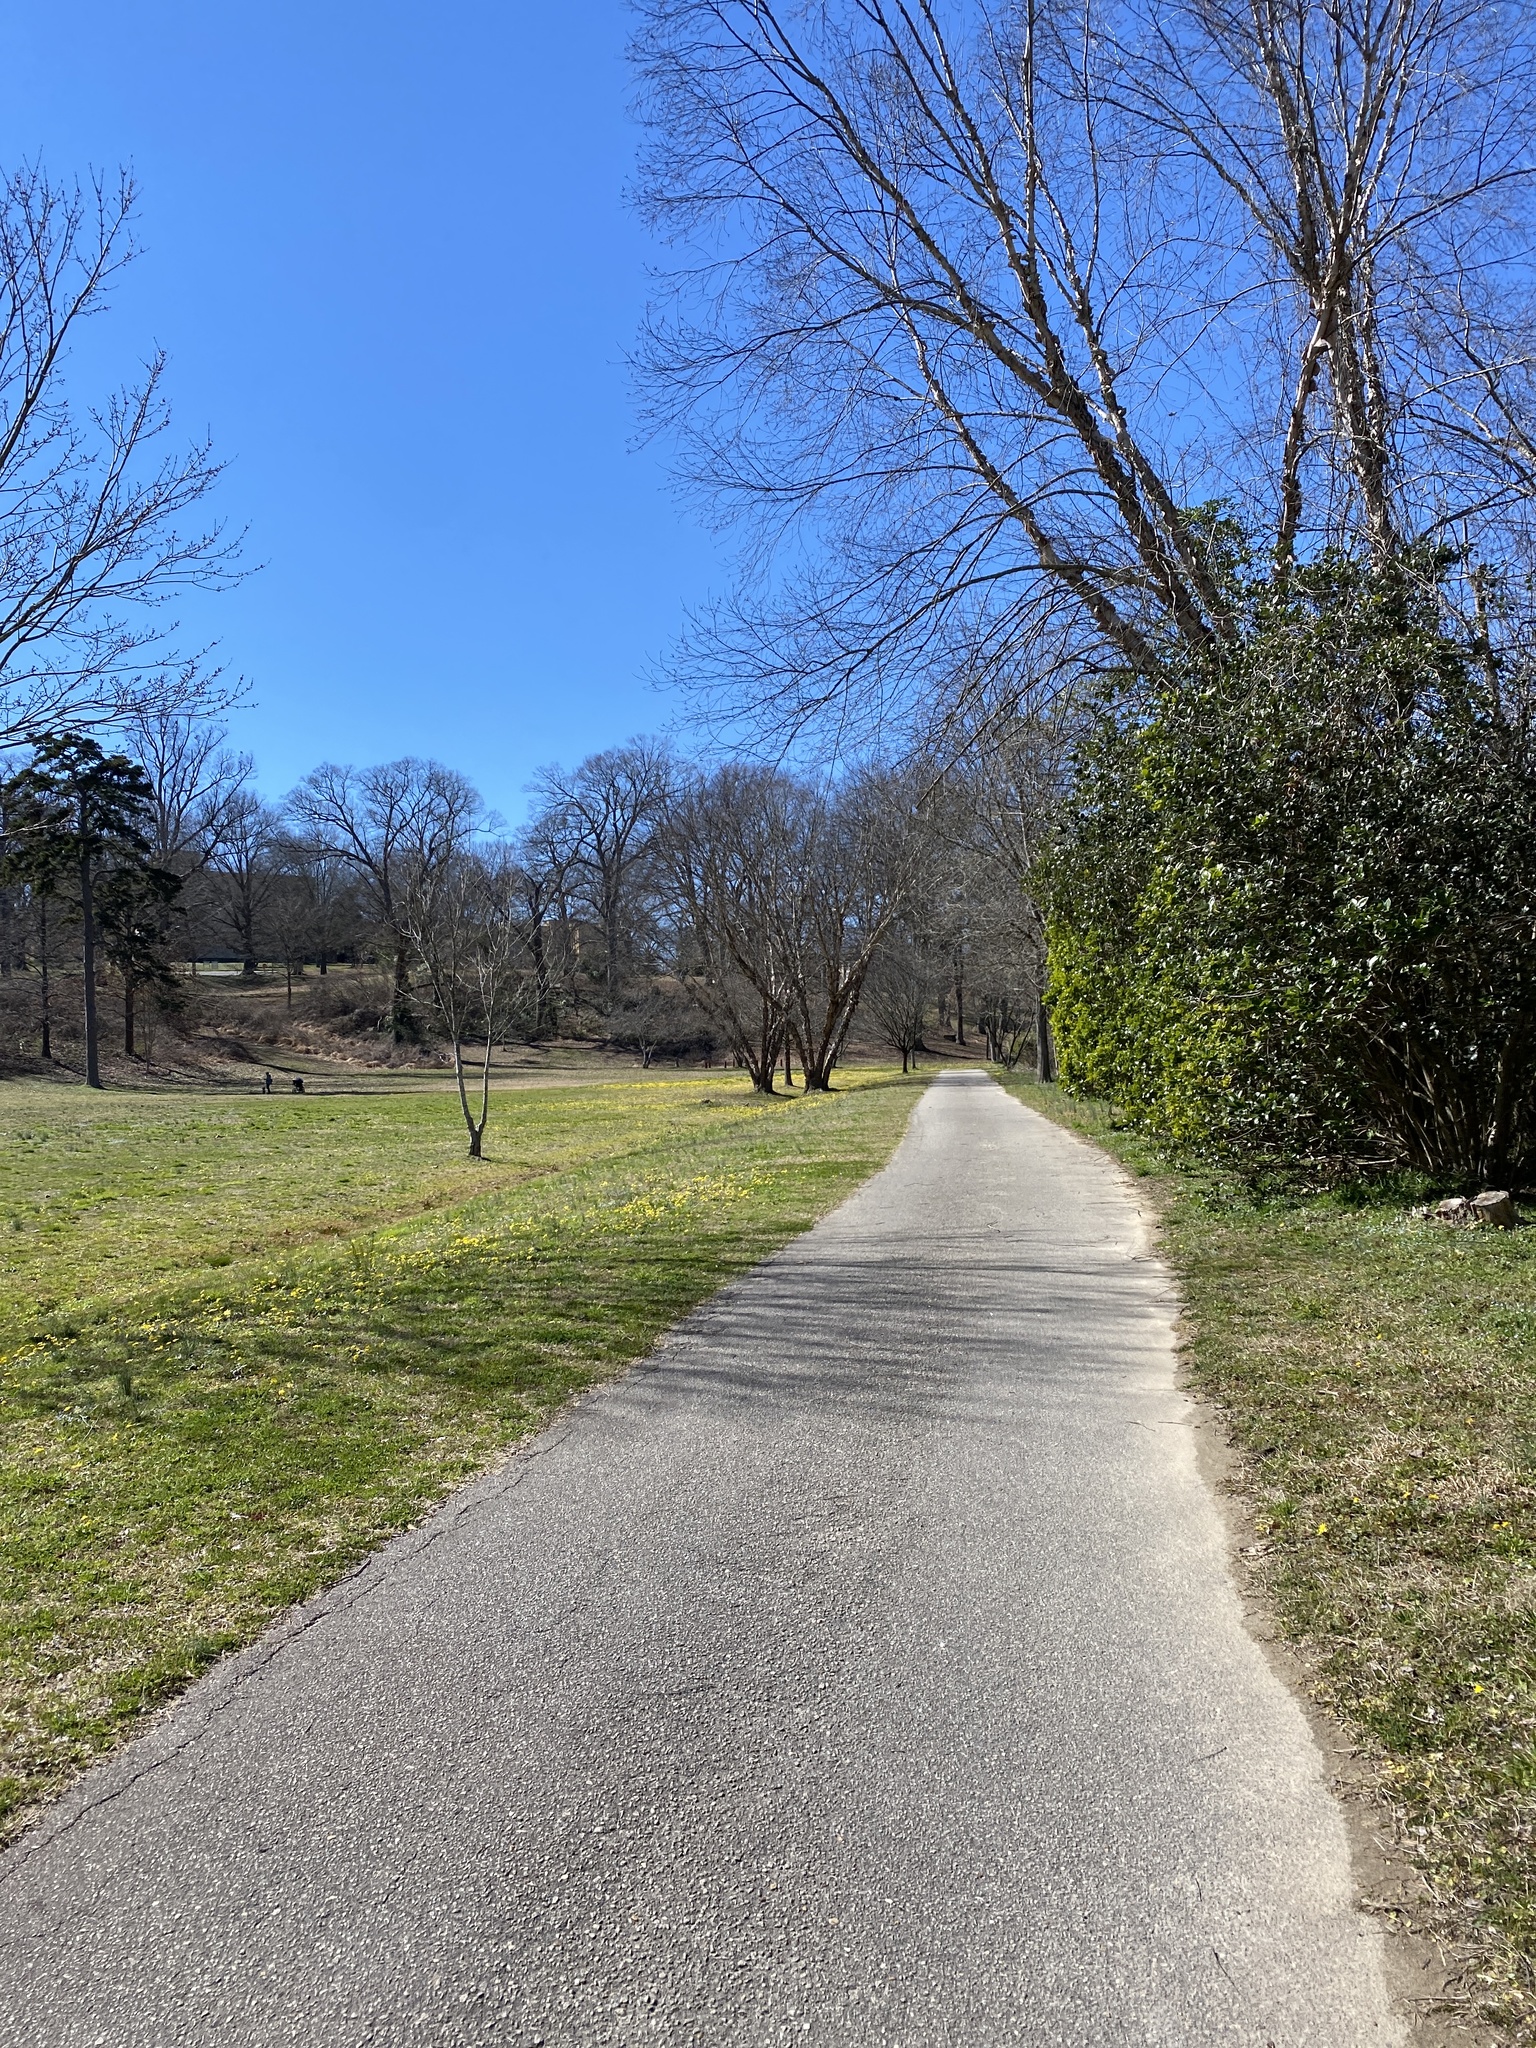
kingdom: Plantae
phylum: Tracheophyta
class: Magnoliopsida
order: Ranunculales
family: Ranunculaceae
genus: Ficaria
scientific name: Ficaria verna
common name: Lesser celandine
